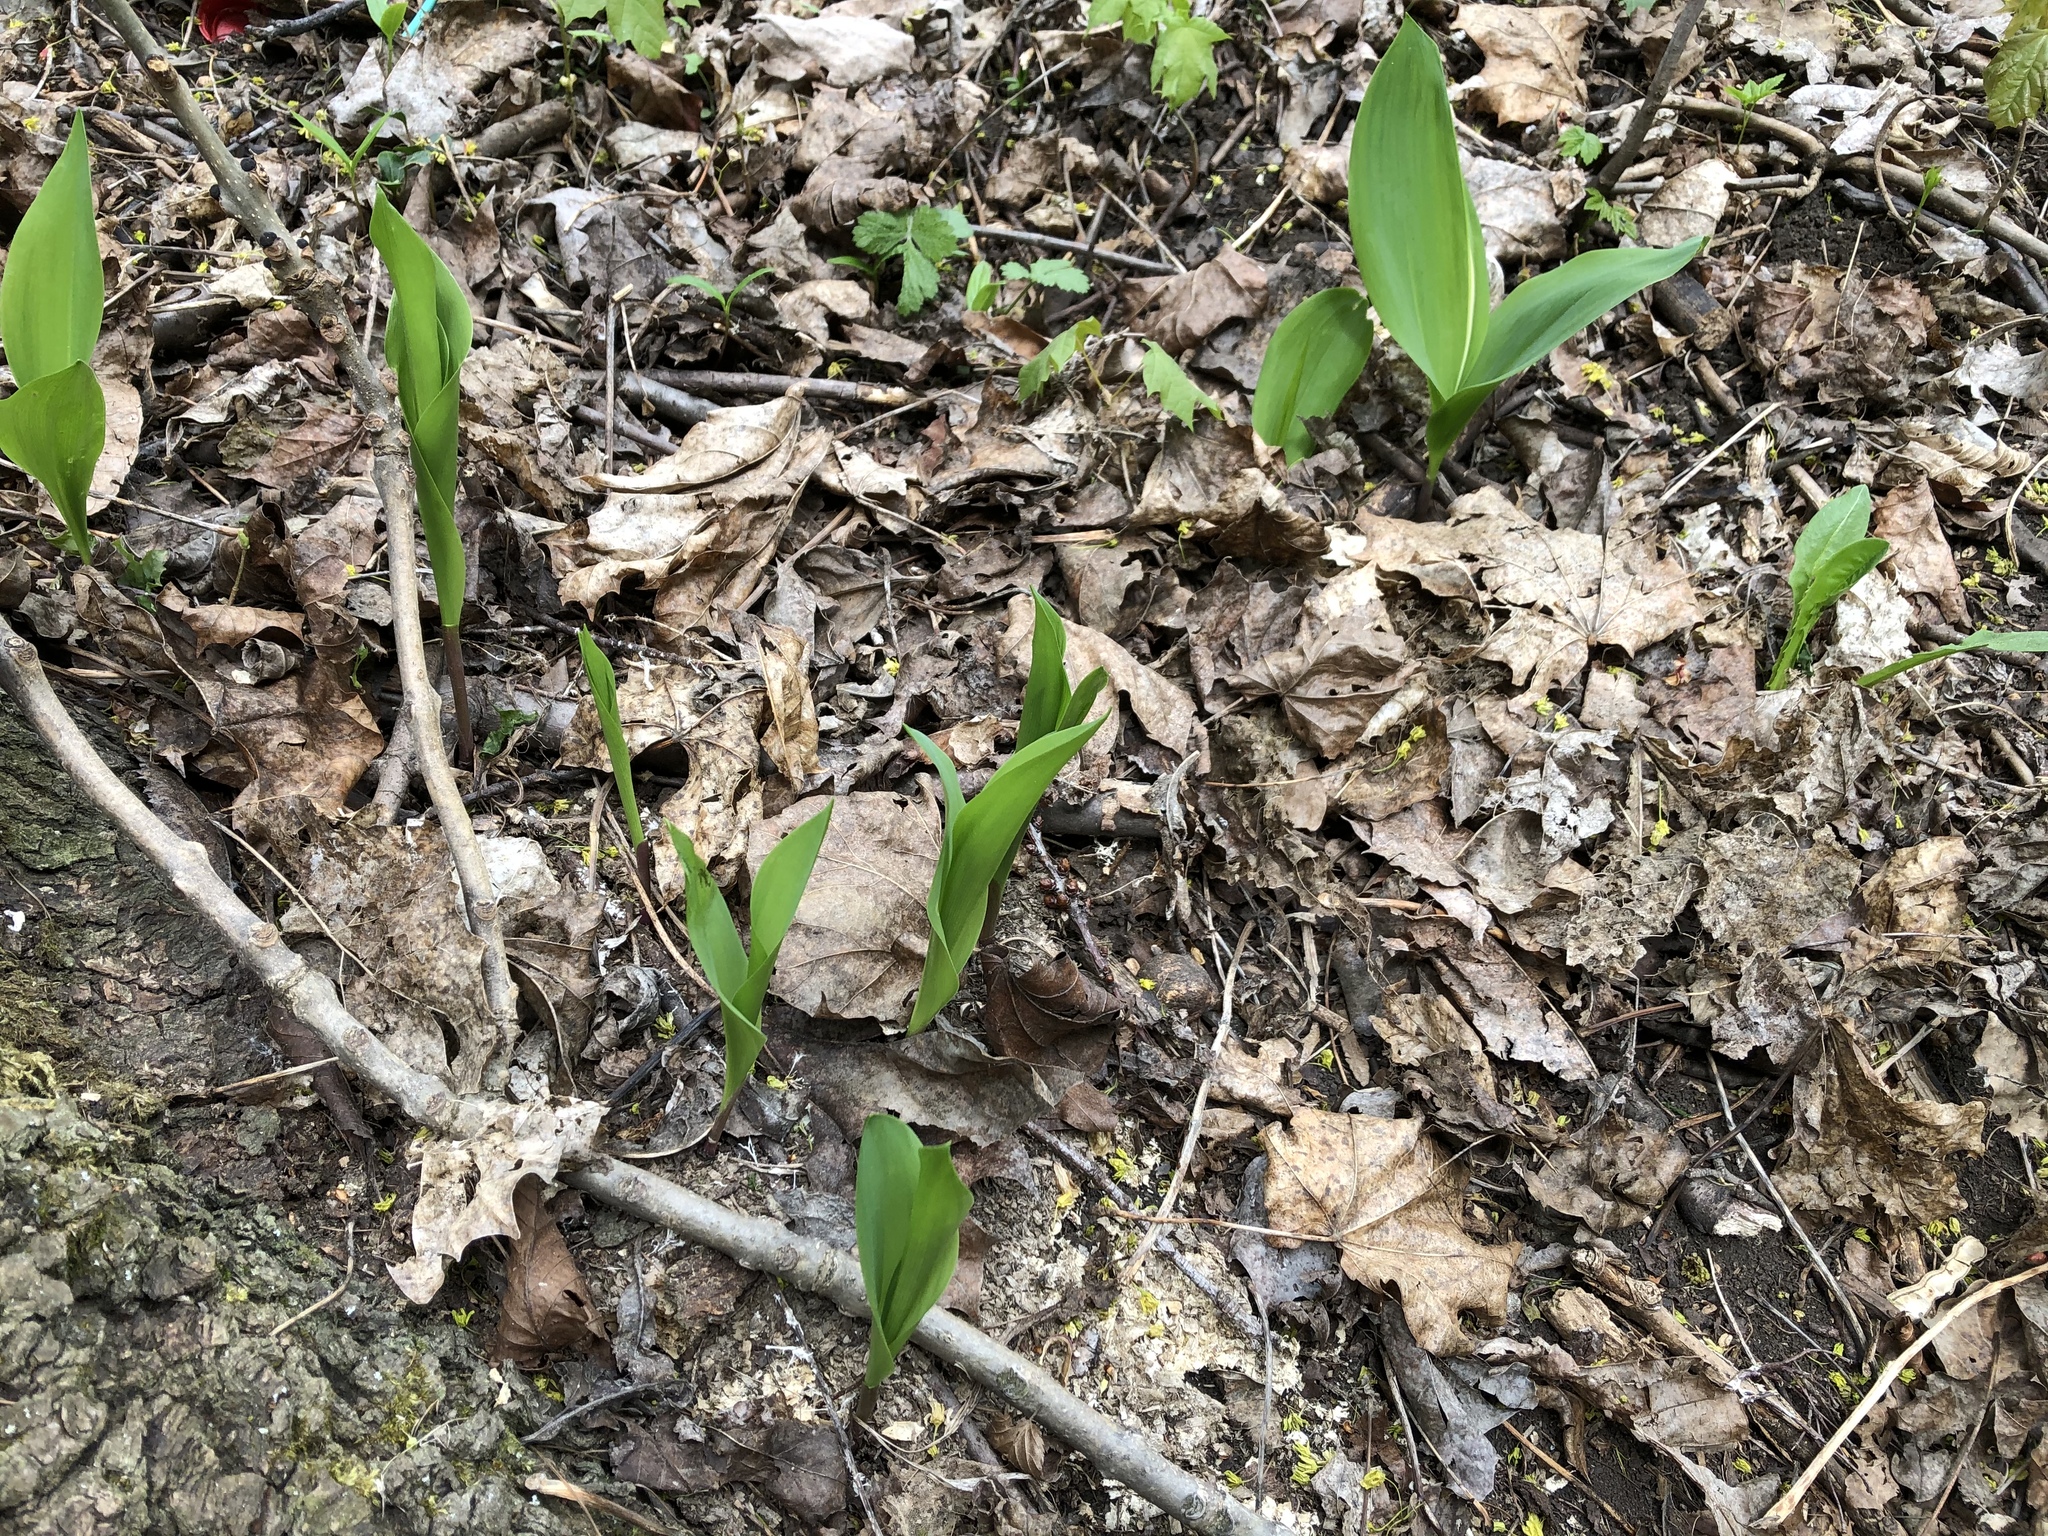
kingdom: Plantae
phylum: Tracheophyta
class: Liliopsida
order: Asparagales
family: Asparagaceae
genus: Convallaria
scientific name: Convallaria majalis
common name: Lily-of-the-valley
